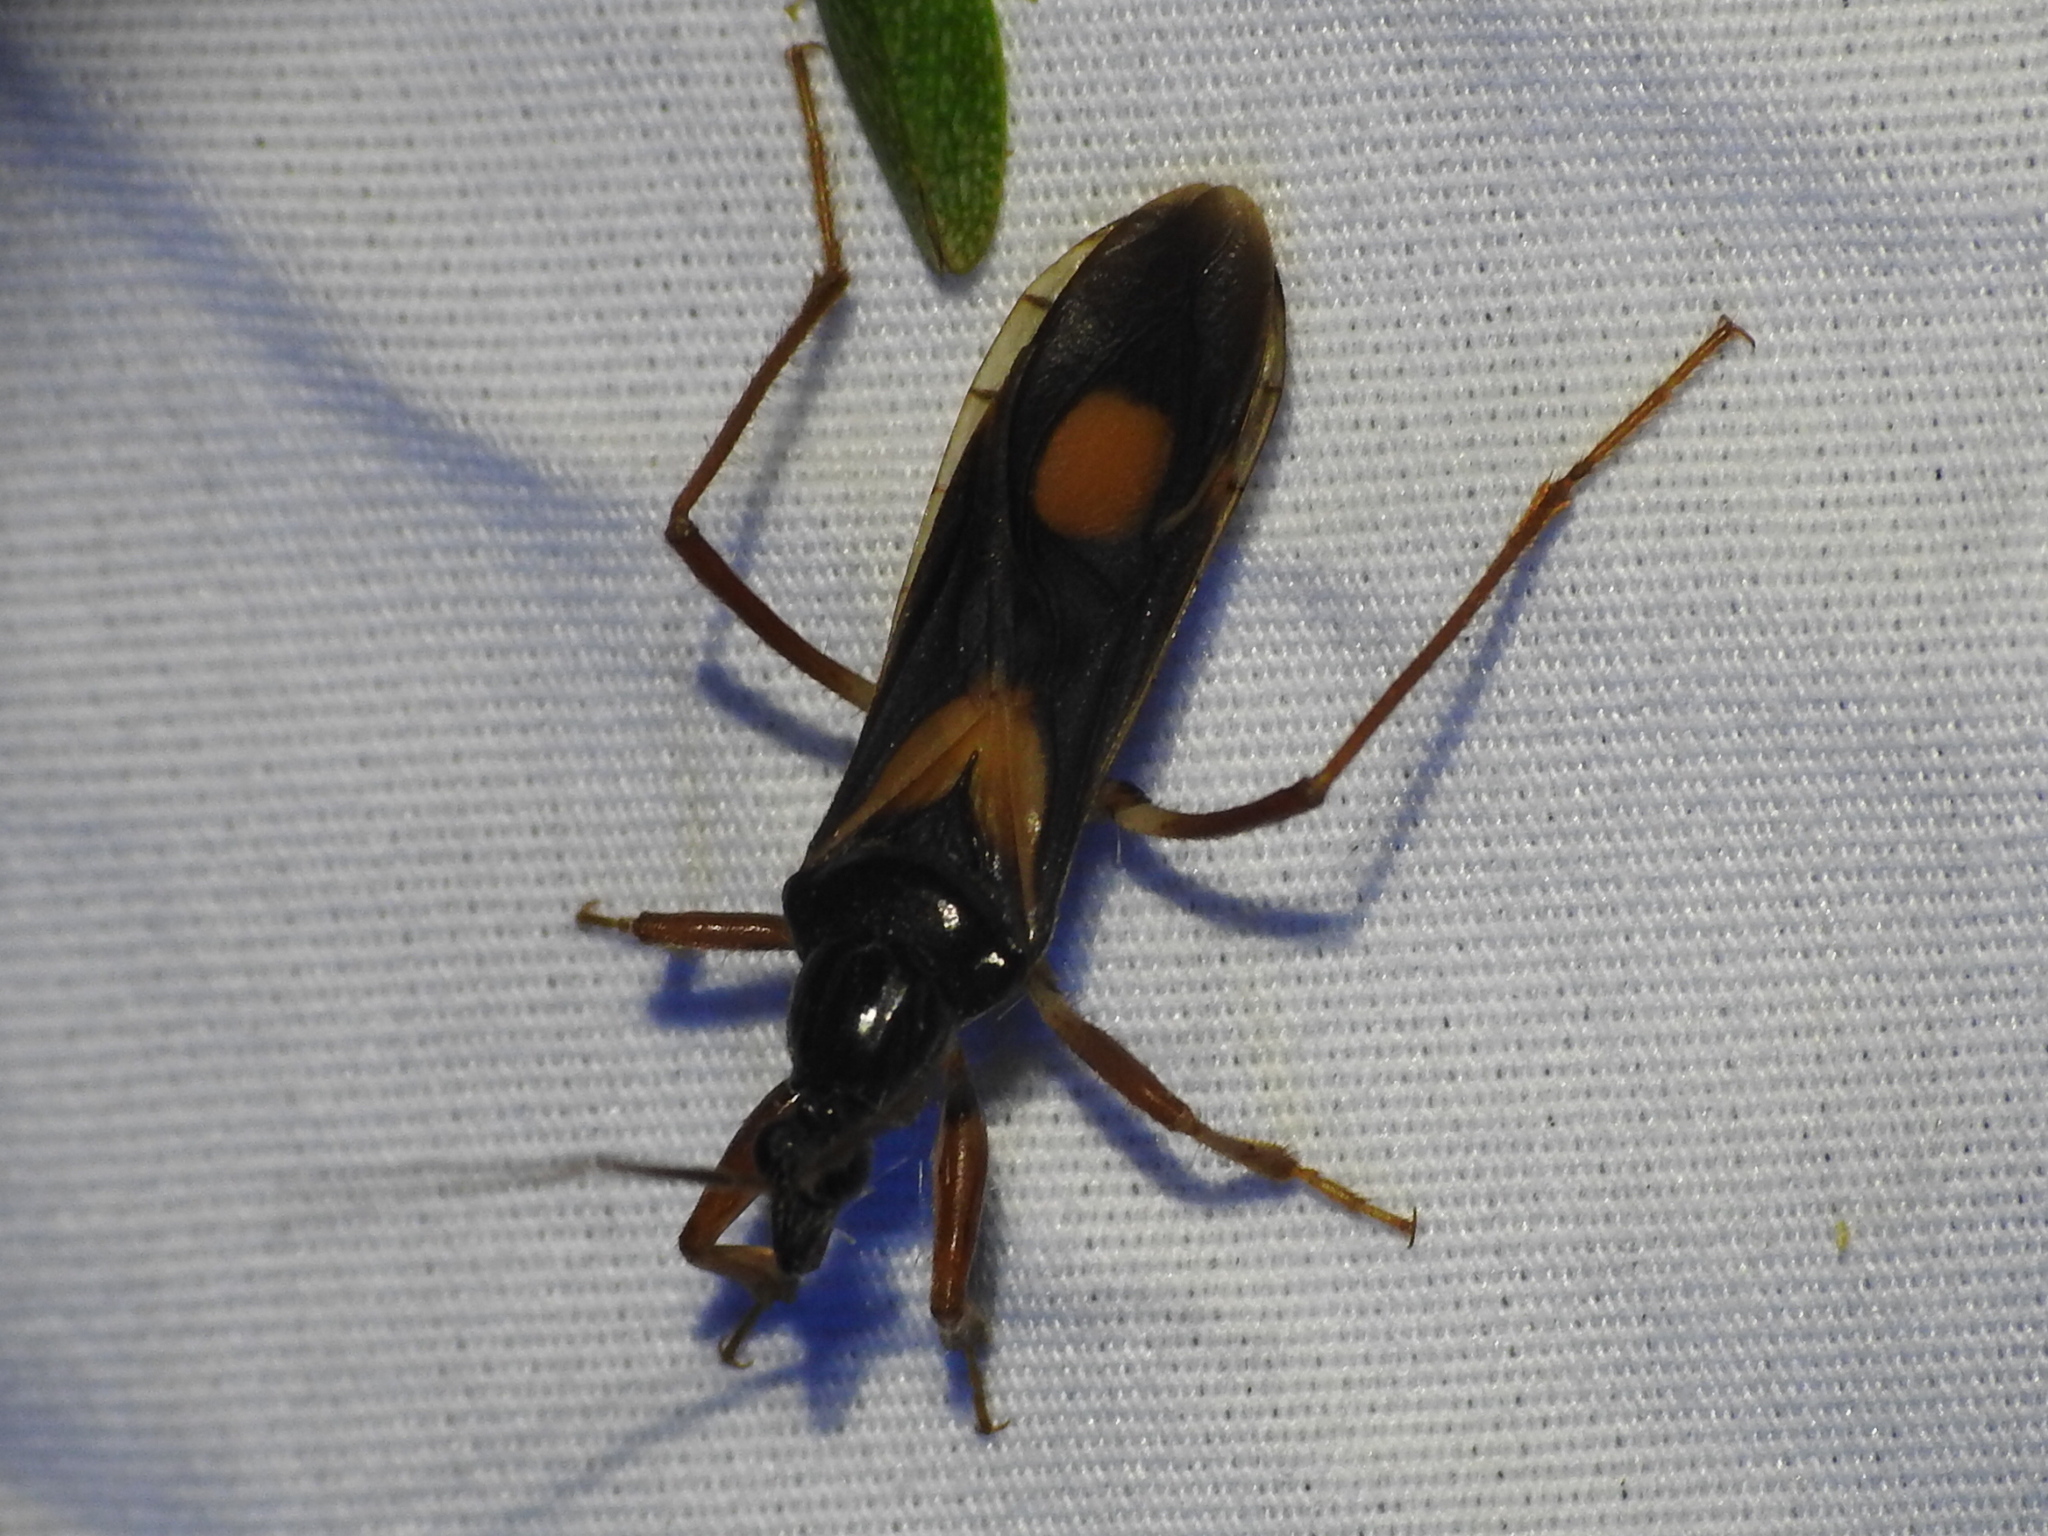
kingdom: Animalia
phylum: Arthropoda
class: Insecta
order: Hemiptera
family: Reduviidae
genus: Rasahus
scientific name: Rasahus hamatus
